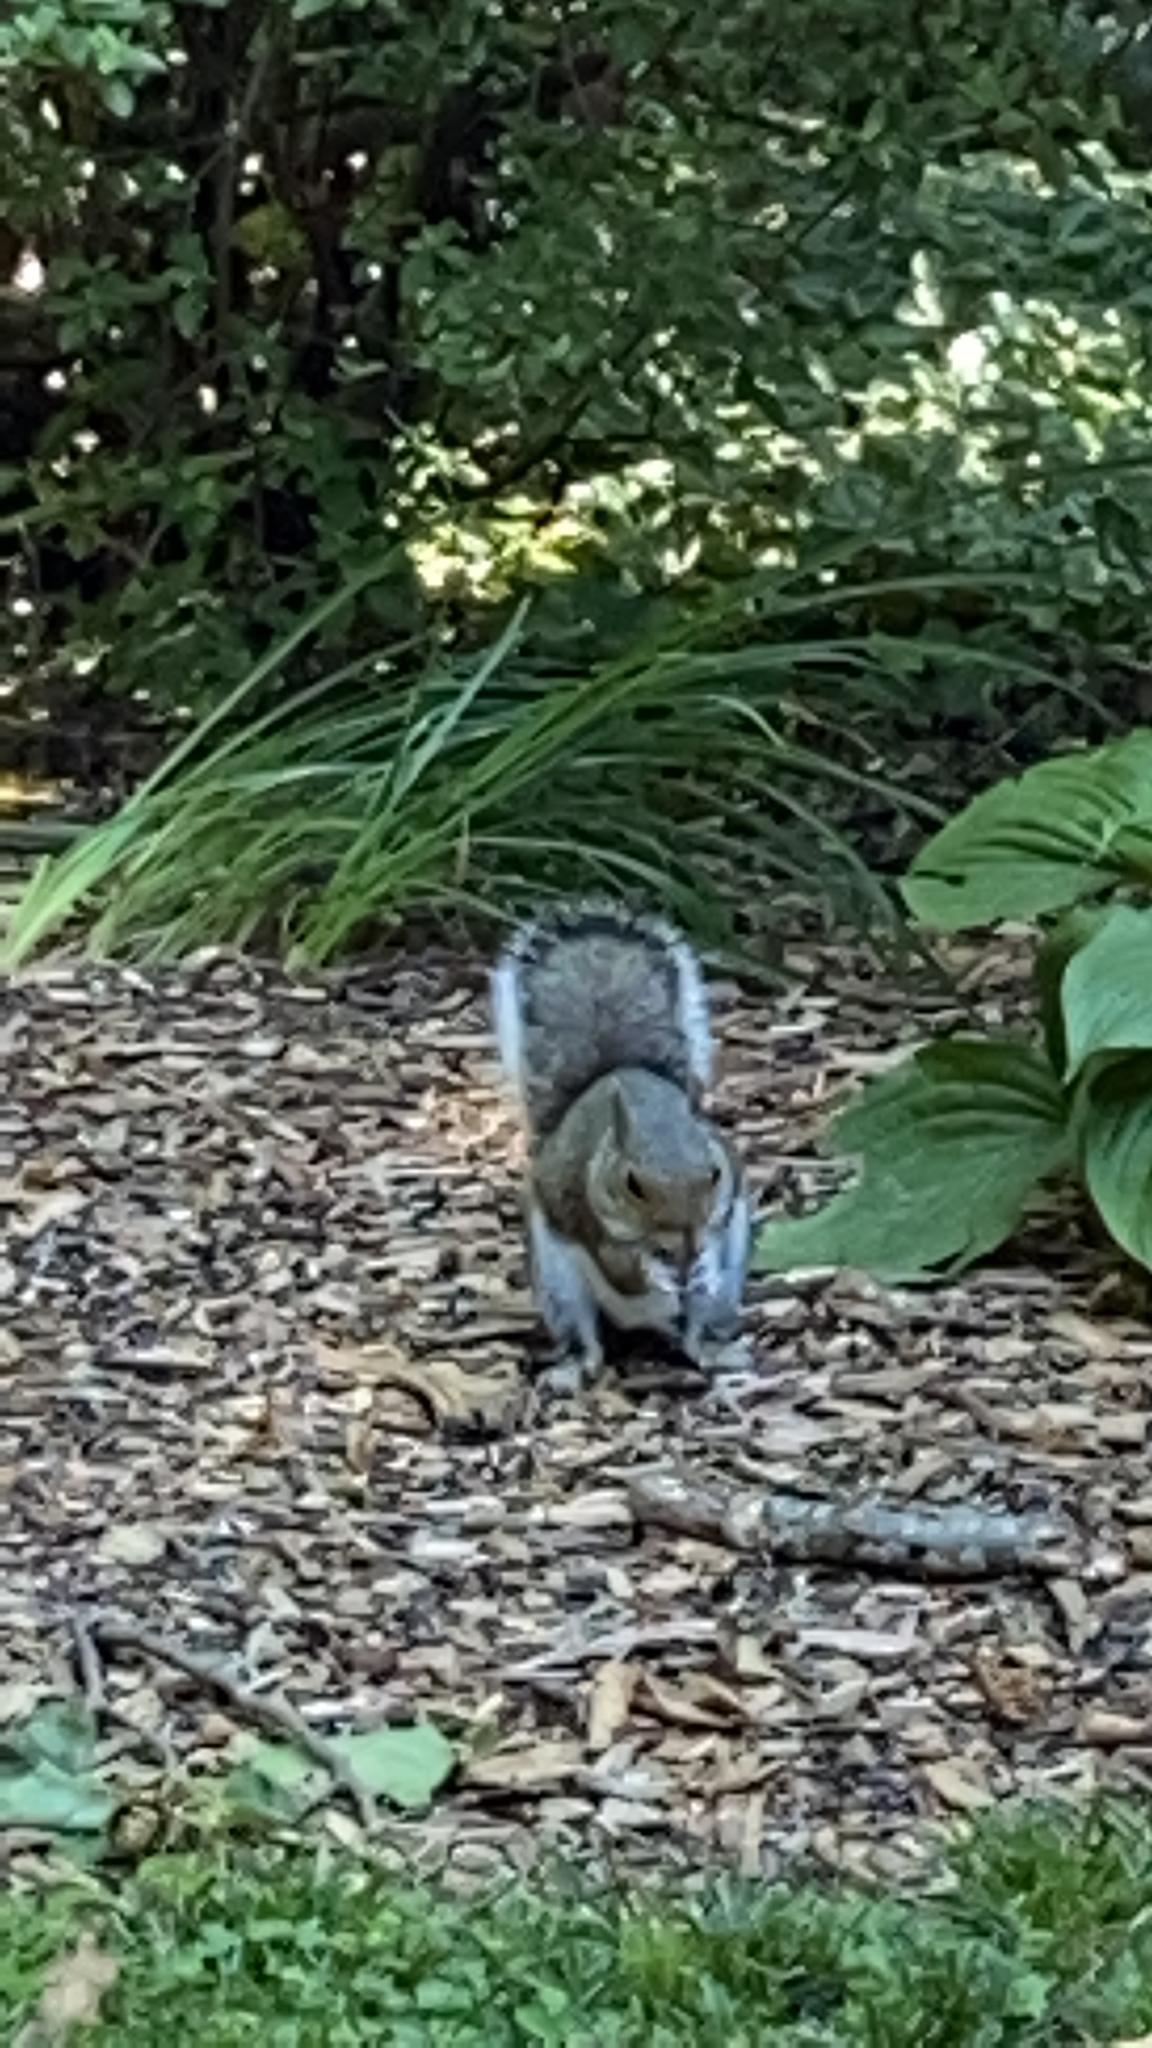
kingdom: Animalia
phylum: Chordata
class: Mammalia
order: Rodentia
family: Sciuridae
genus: Sciurus
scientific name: Sciurus carolinensis
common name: Eastern gray squirrel
